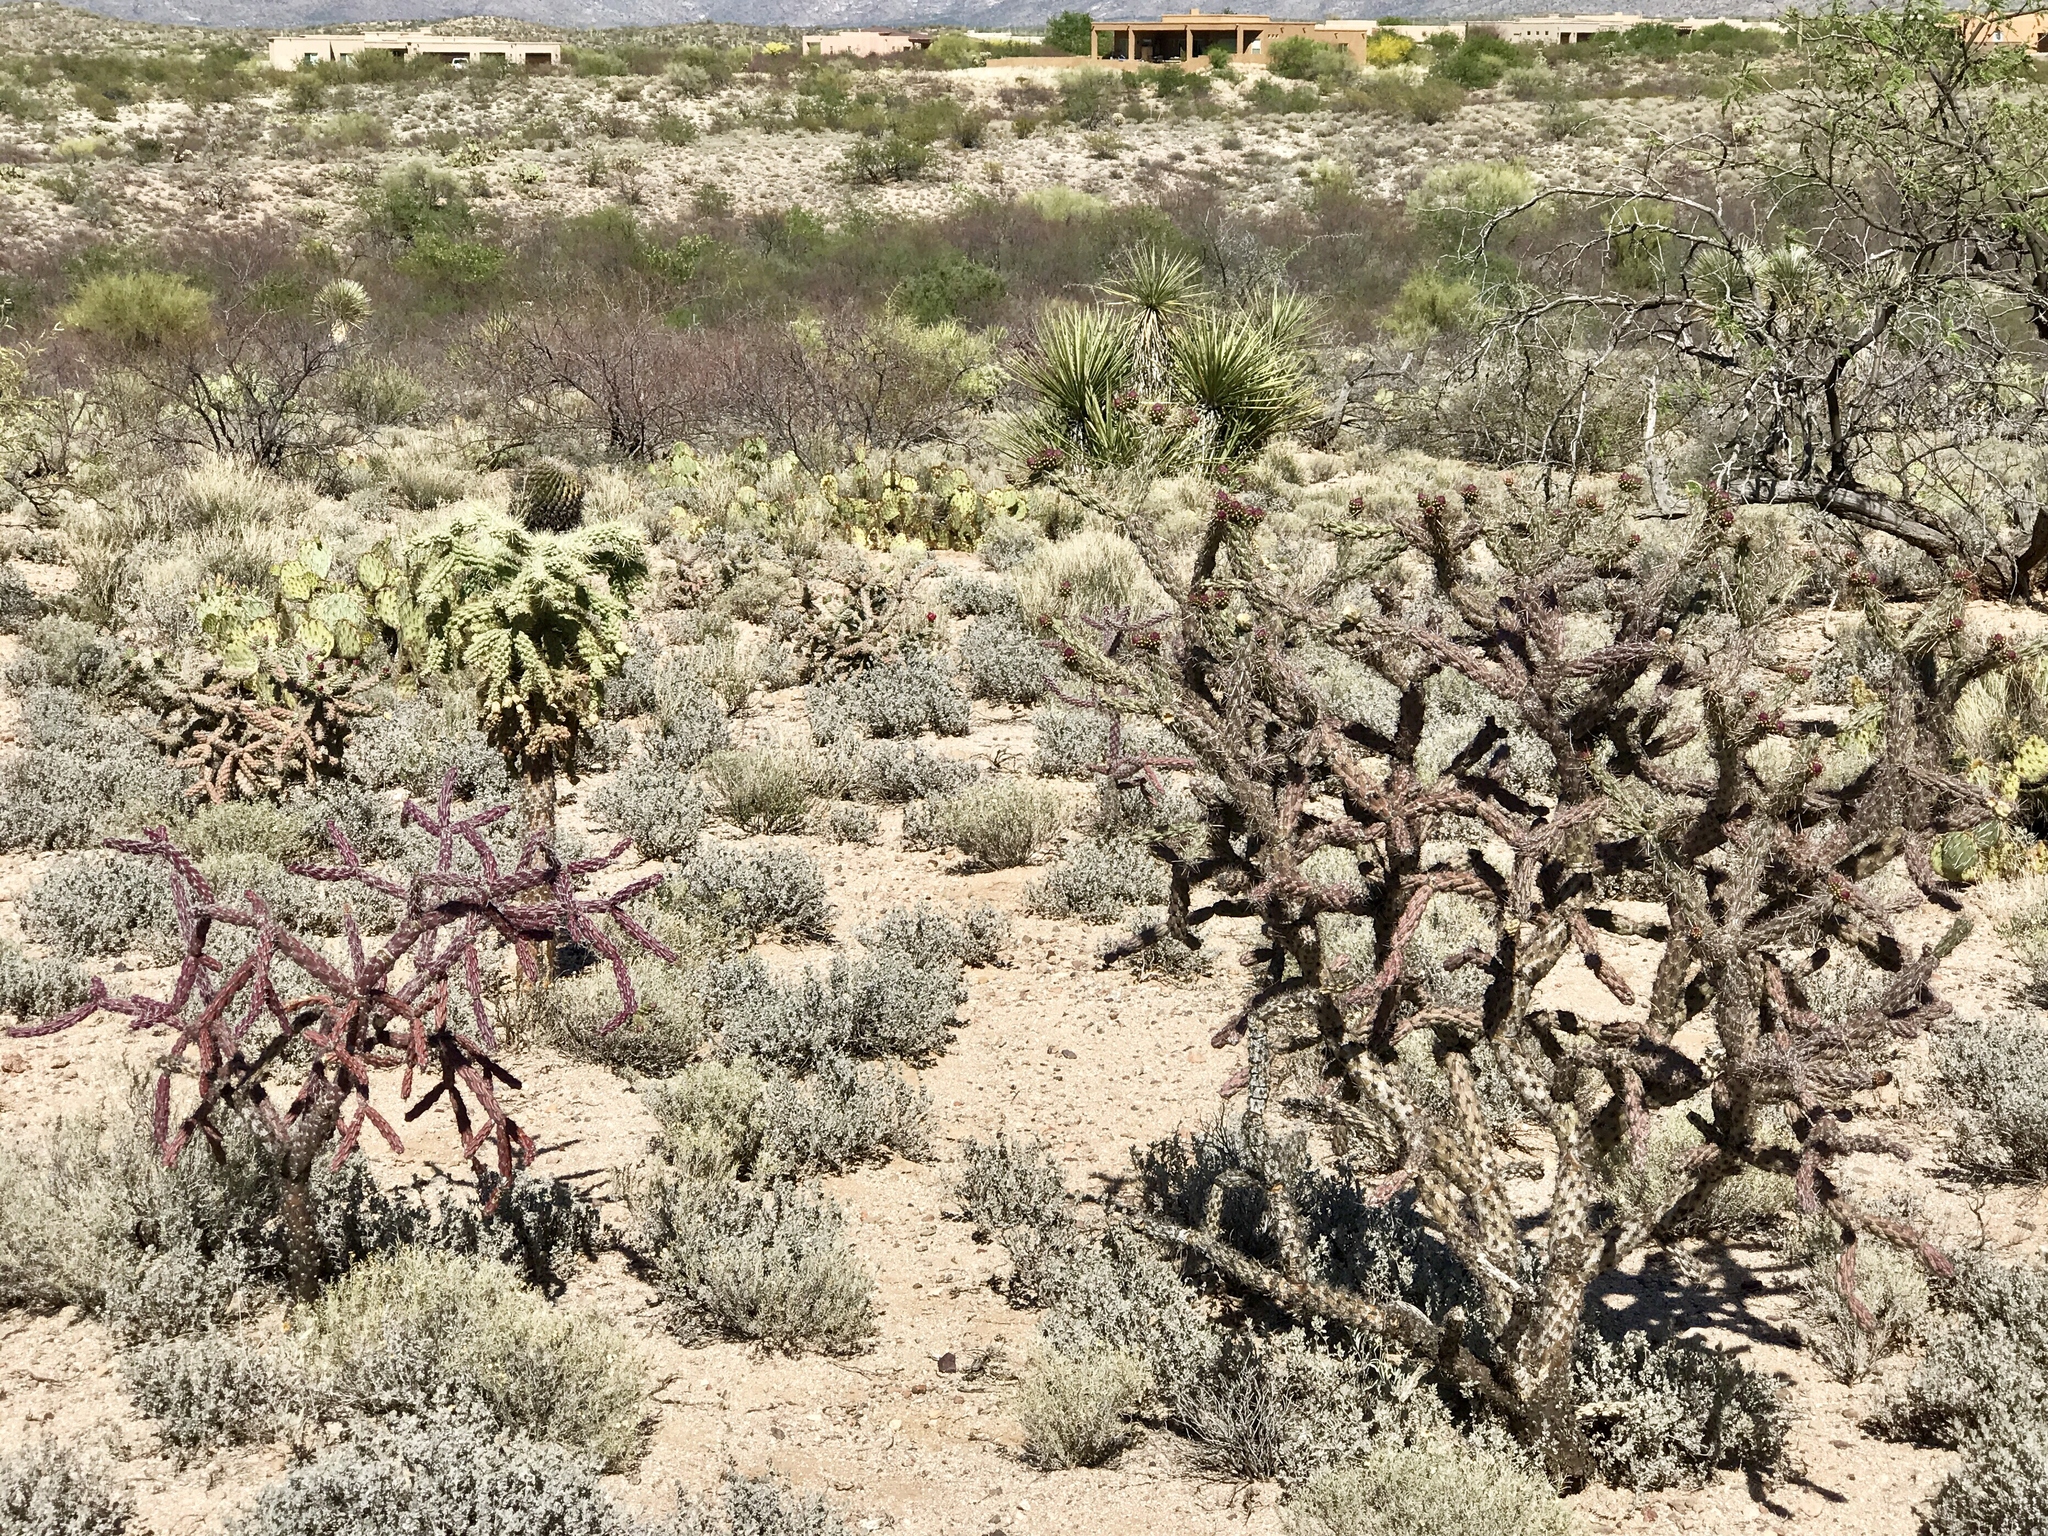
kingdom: Plantae
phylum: Tracheophyta
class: Magnoliopsida
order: Caryophyllales
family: Cactaceae
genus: Cylindropuntia
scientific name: Cylindropuntia thurberi
